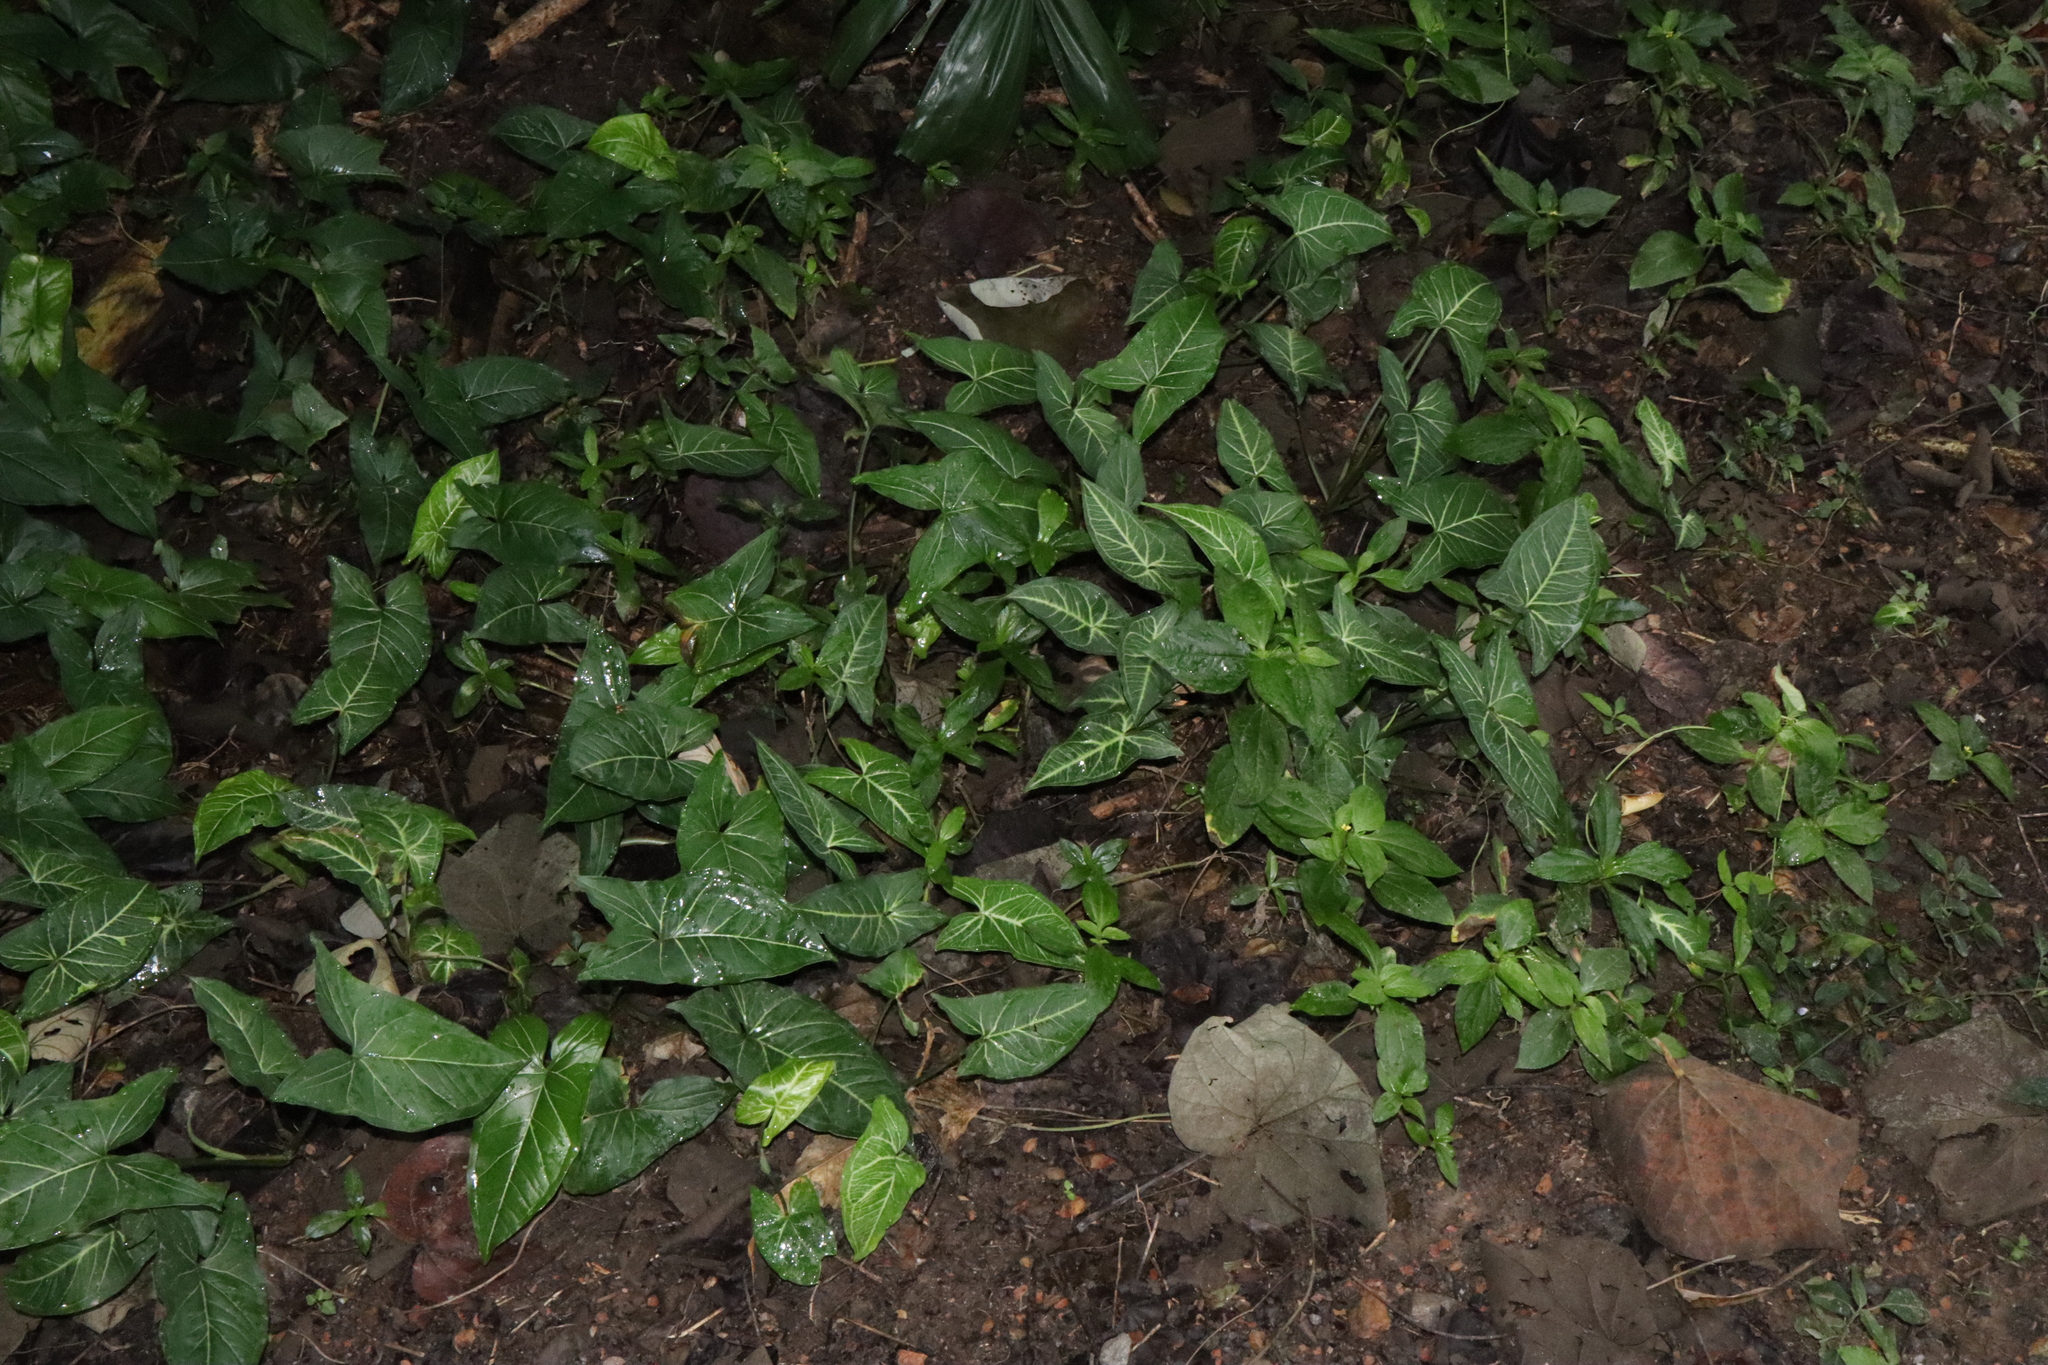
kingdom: Plantae
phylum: Tracheophyta
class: Liliopsida
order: Alismatales
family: Araceae
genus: Syngonium
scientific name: Syngonium podophyllum
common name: American evergreen
